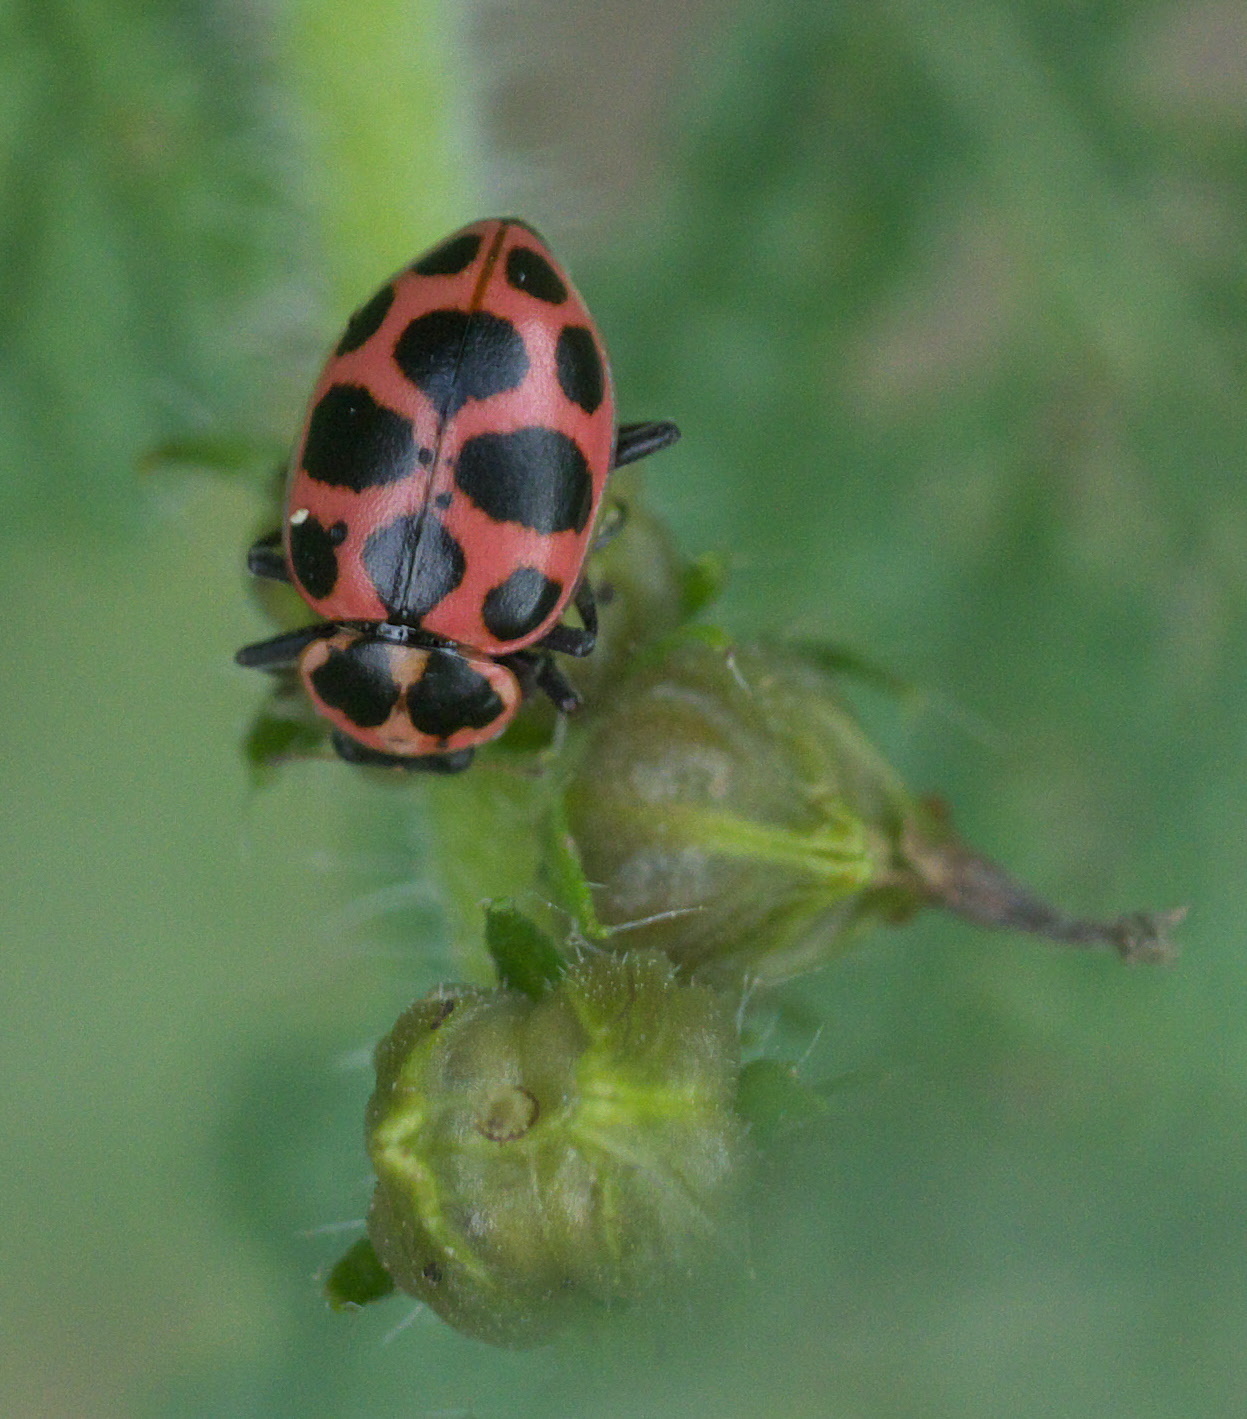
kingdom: Animalia
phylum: Arthropoda
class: Insecta
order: Coleoptera
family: Coccinellidae
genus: Coleomegilla
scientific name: Coleomegilla maculata
